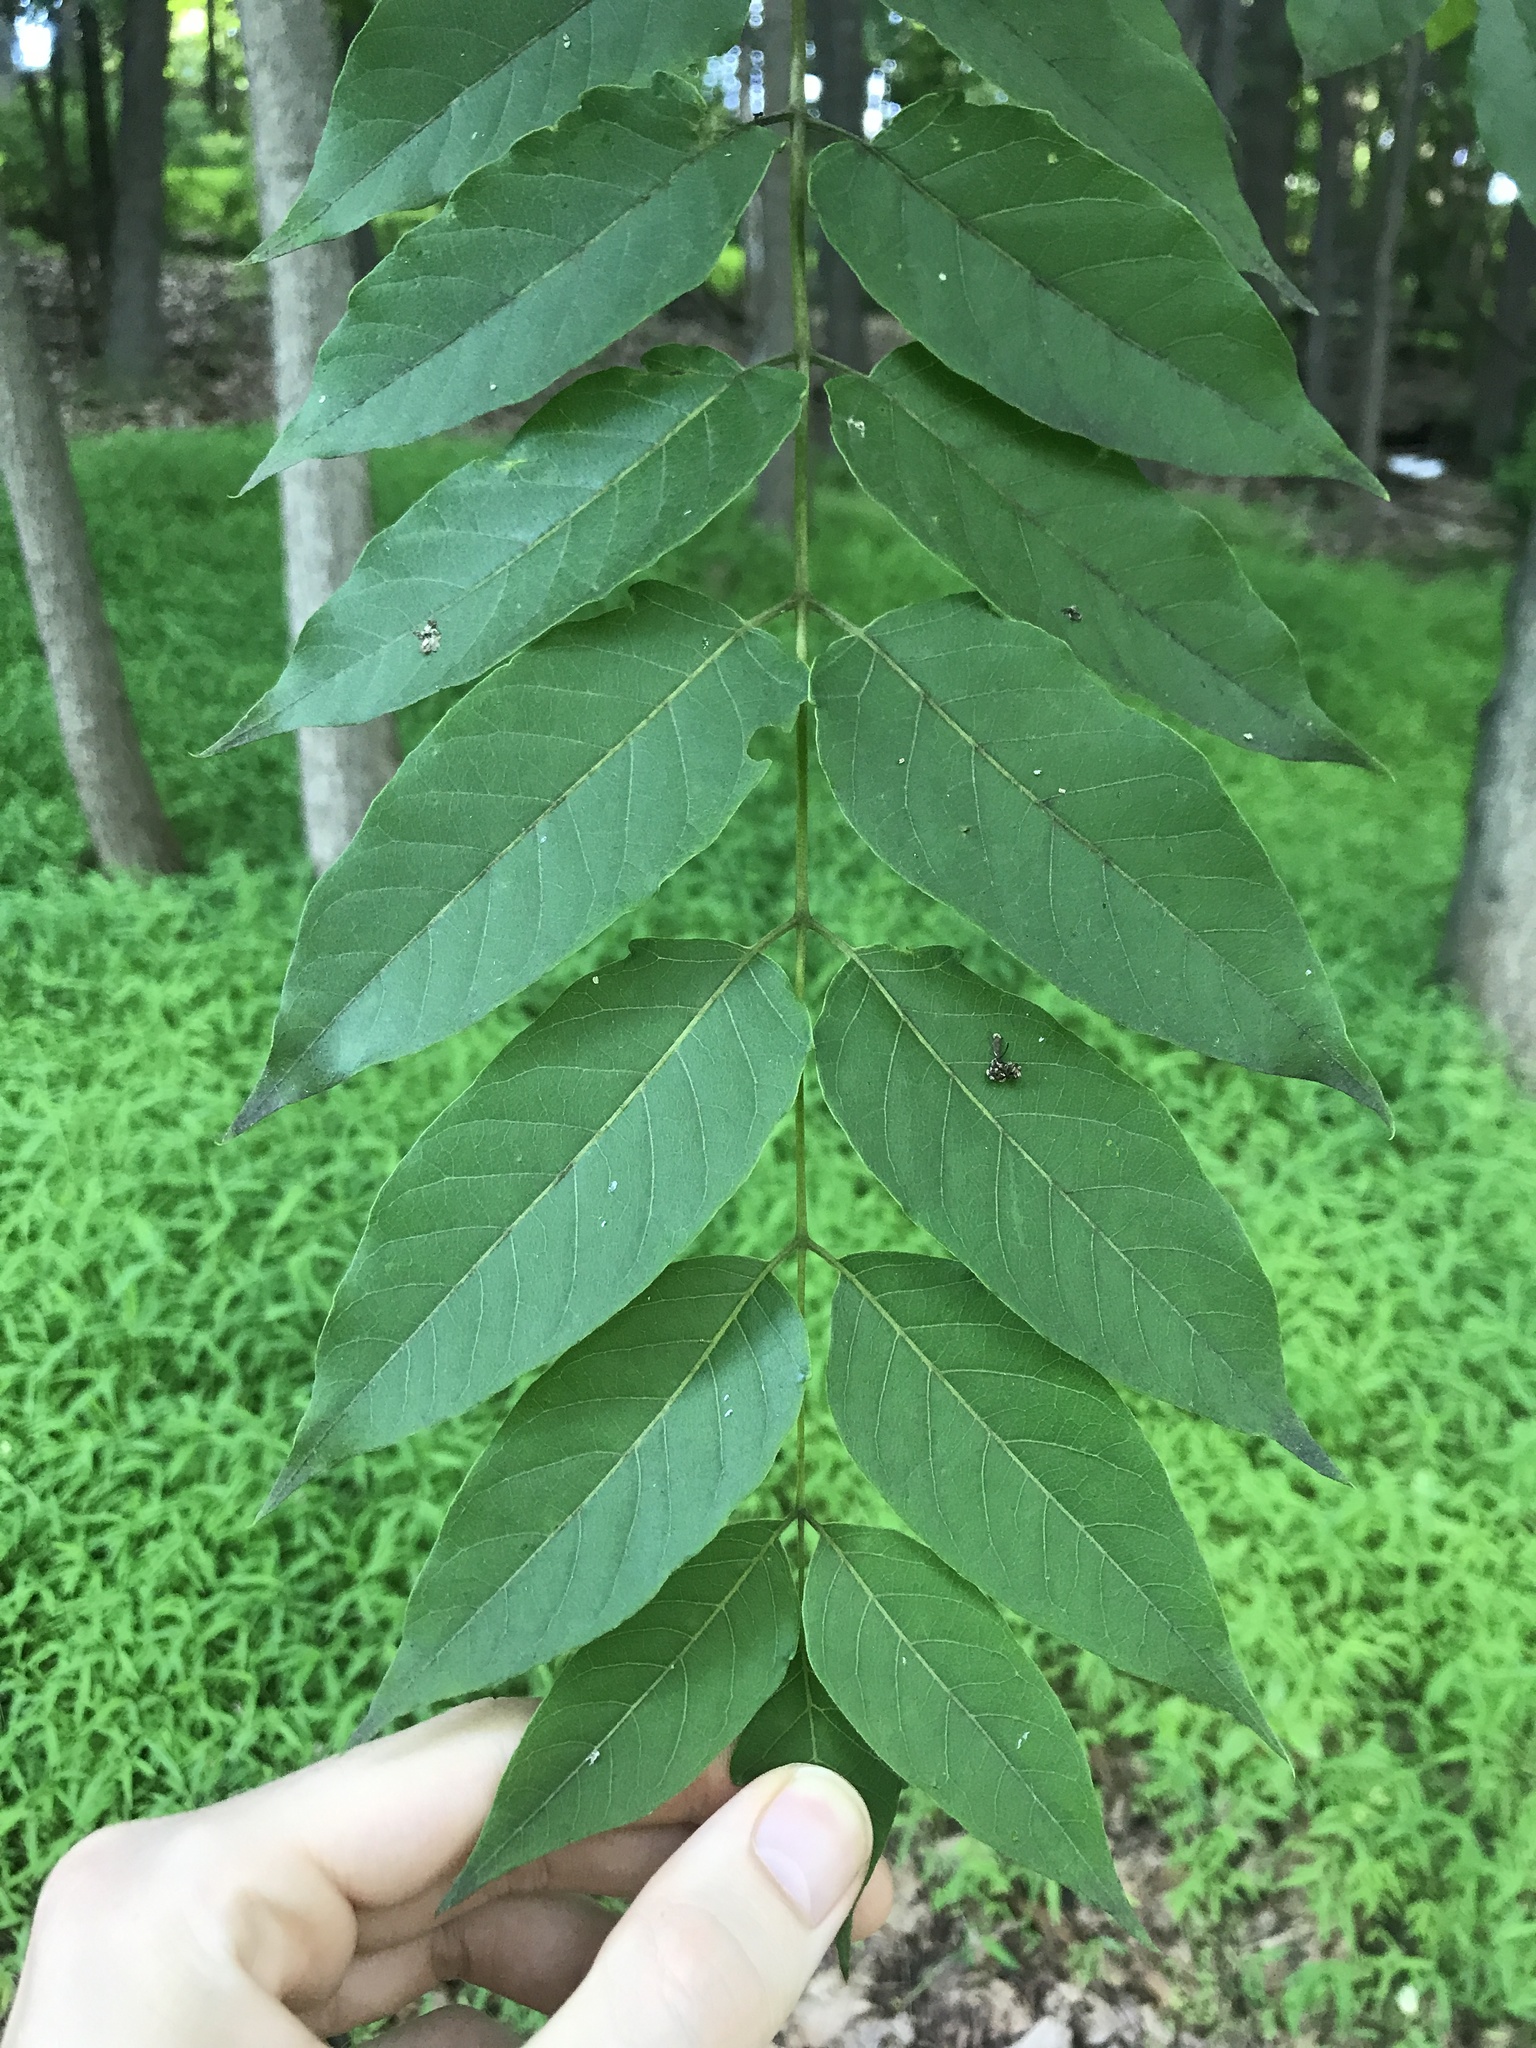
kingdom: Plantae
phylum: Tracheophyta
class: Magnoliopsida
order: Sapindales
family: Simaroubaceae
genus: Ailanthus
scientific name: Ailanthus altissima
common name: Tree-of-heaven
